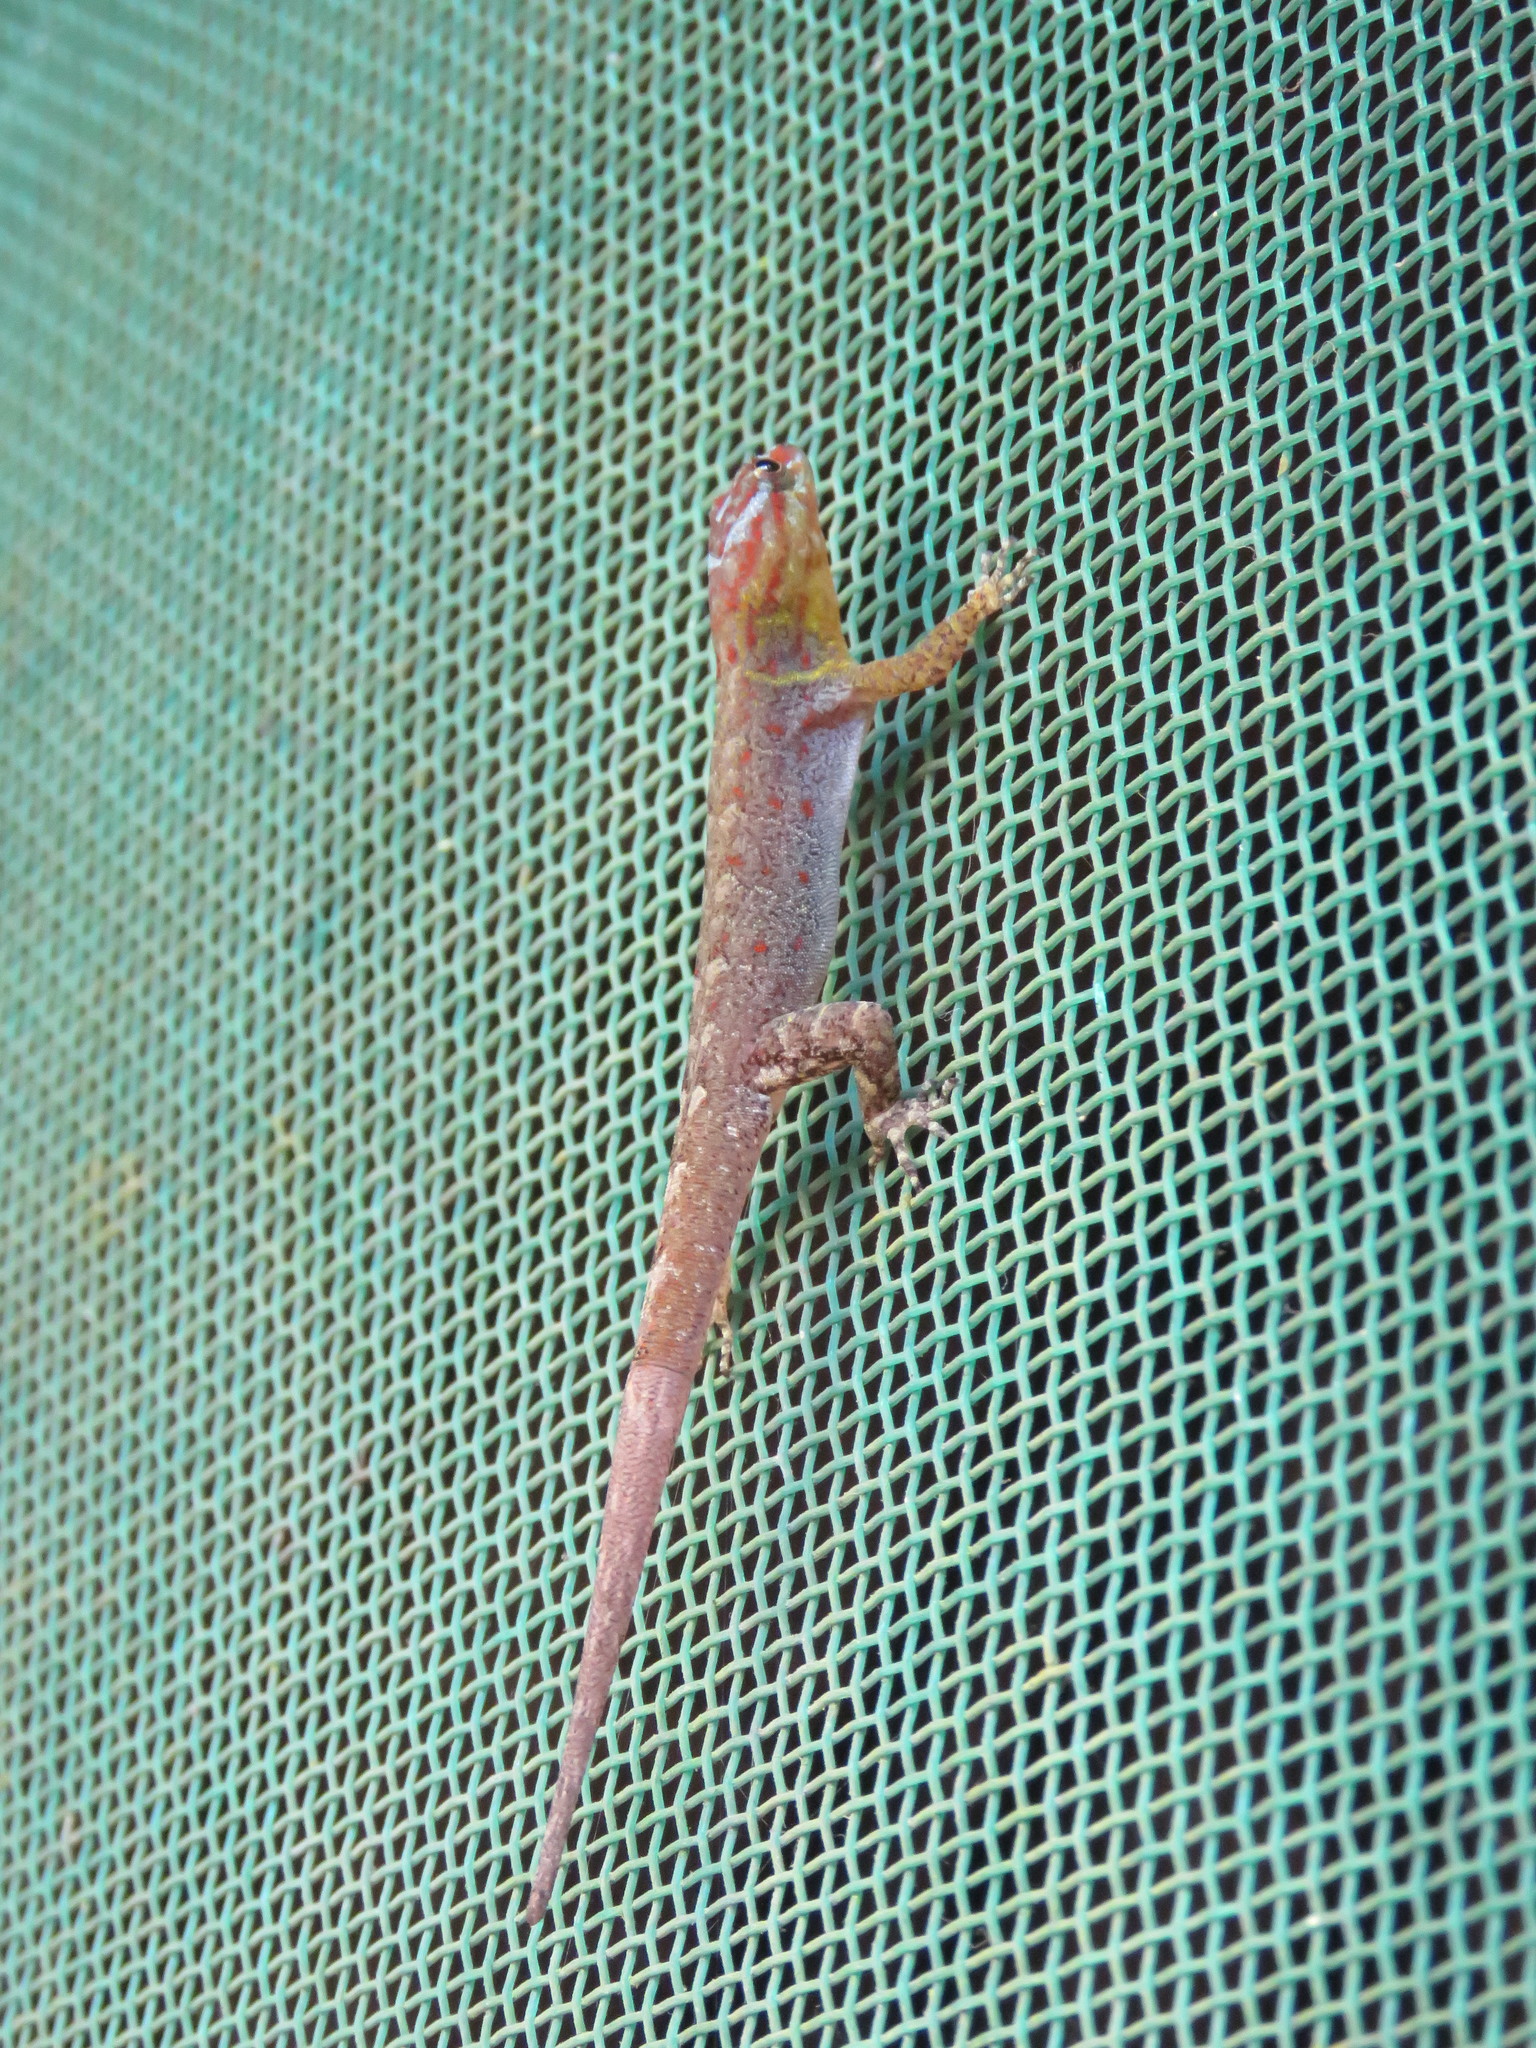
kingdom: Animalia
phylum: Chordata
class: Squamata
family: Sphaerodactylidae
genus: Gonatodes
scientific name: Gonatodes humeralis
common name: South american clawed gecko
